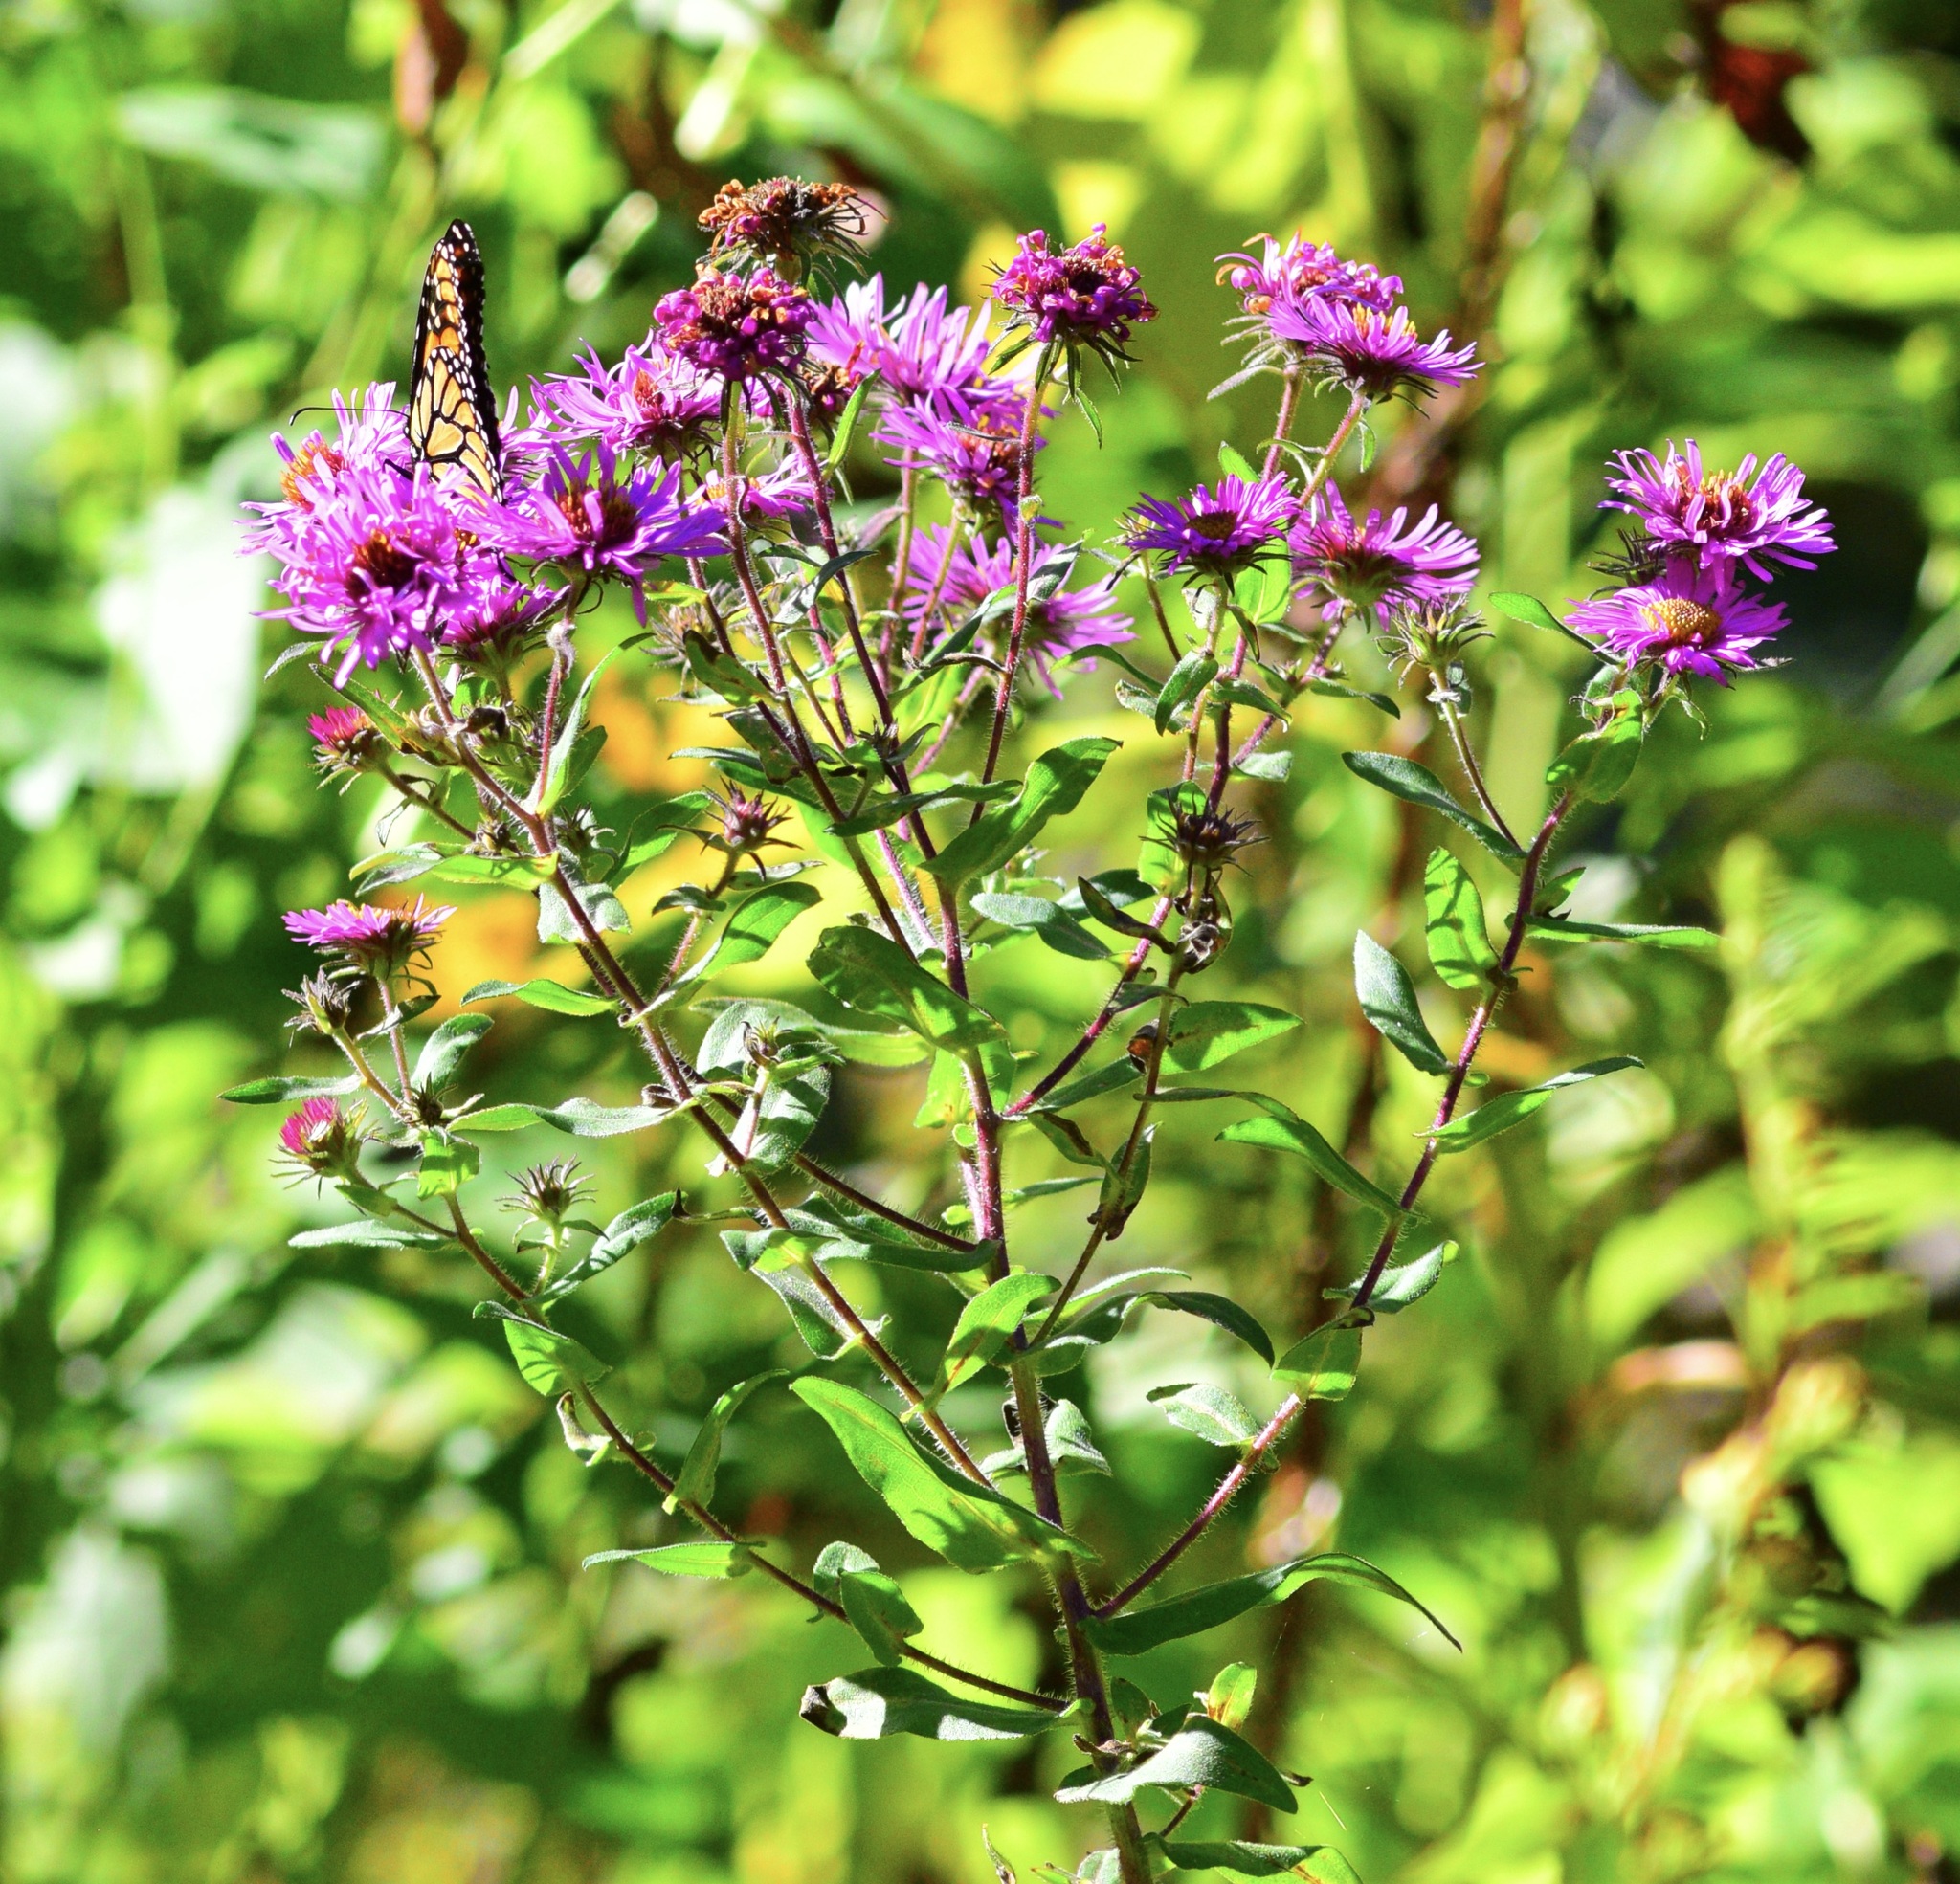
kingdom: Animalia
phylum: Arthropoda
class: Insecta
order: Lepidoptera
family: Nymphalidae
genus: Danaus
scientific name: Danaus plexippus
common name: Monarch
